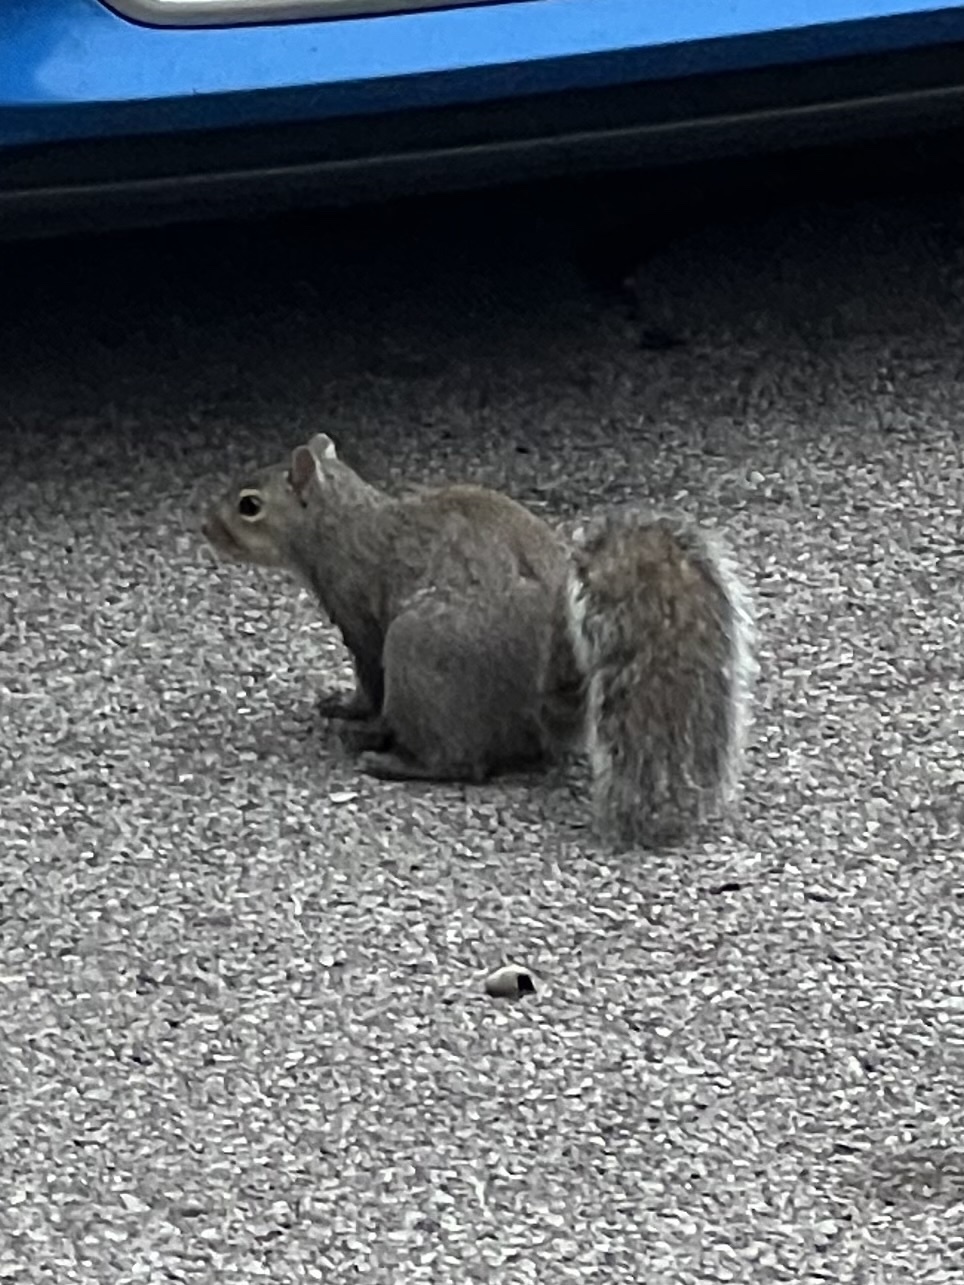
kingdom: Animalia
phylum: Chordata
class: Mammalia
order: Rodentia
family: Sciuridae
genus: Sciurus
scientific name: Sciurus carolinensis
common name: Eastern gray squirrel
